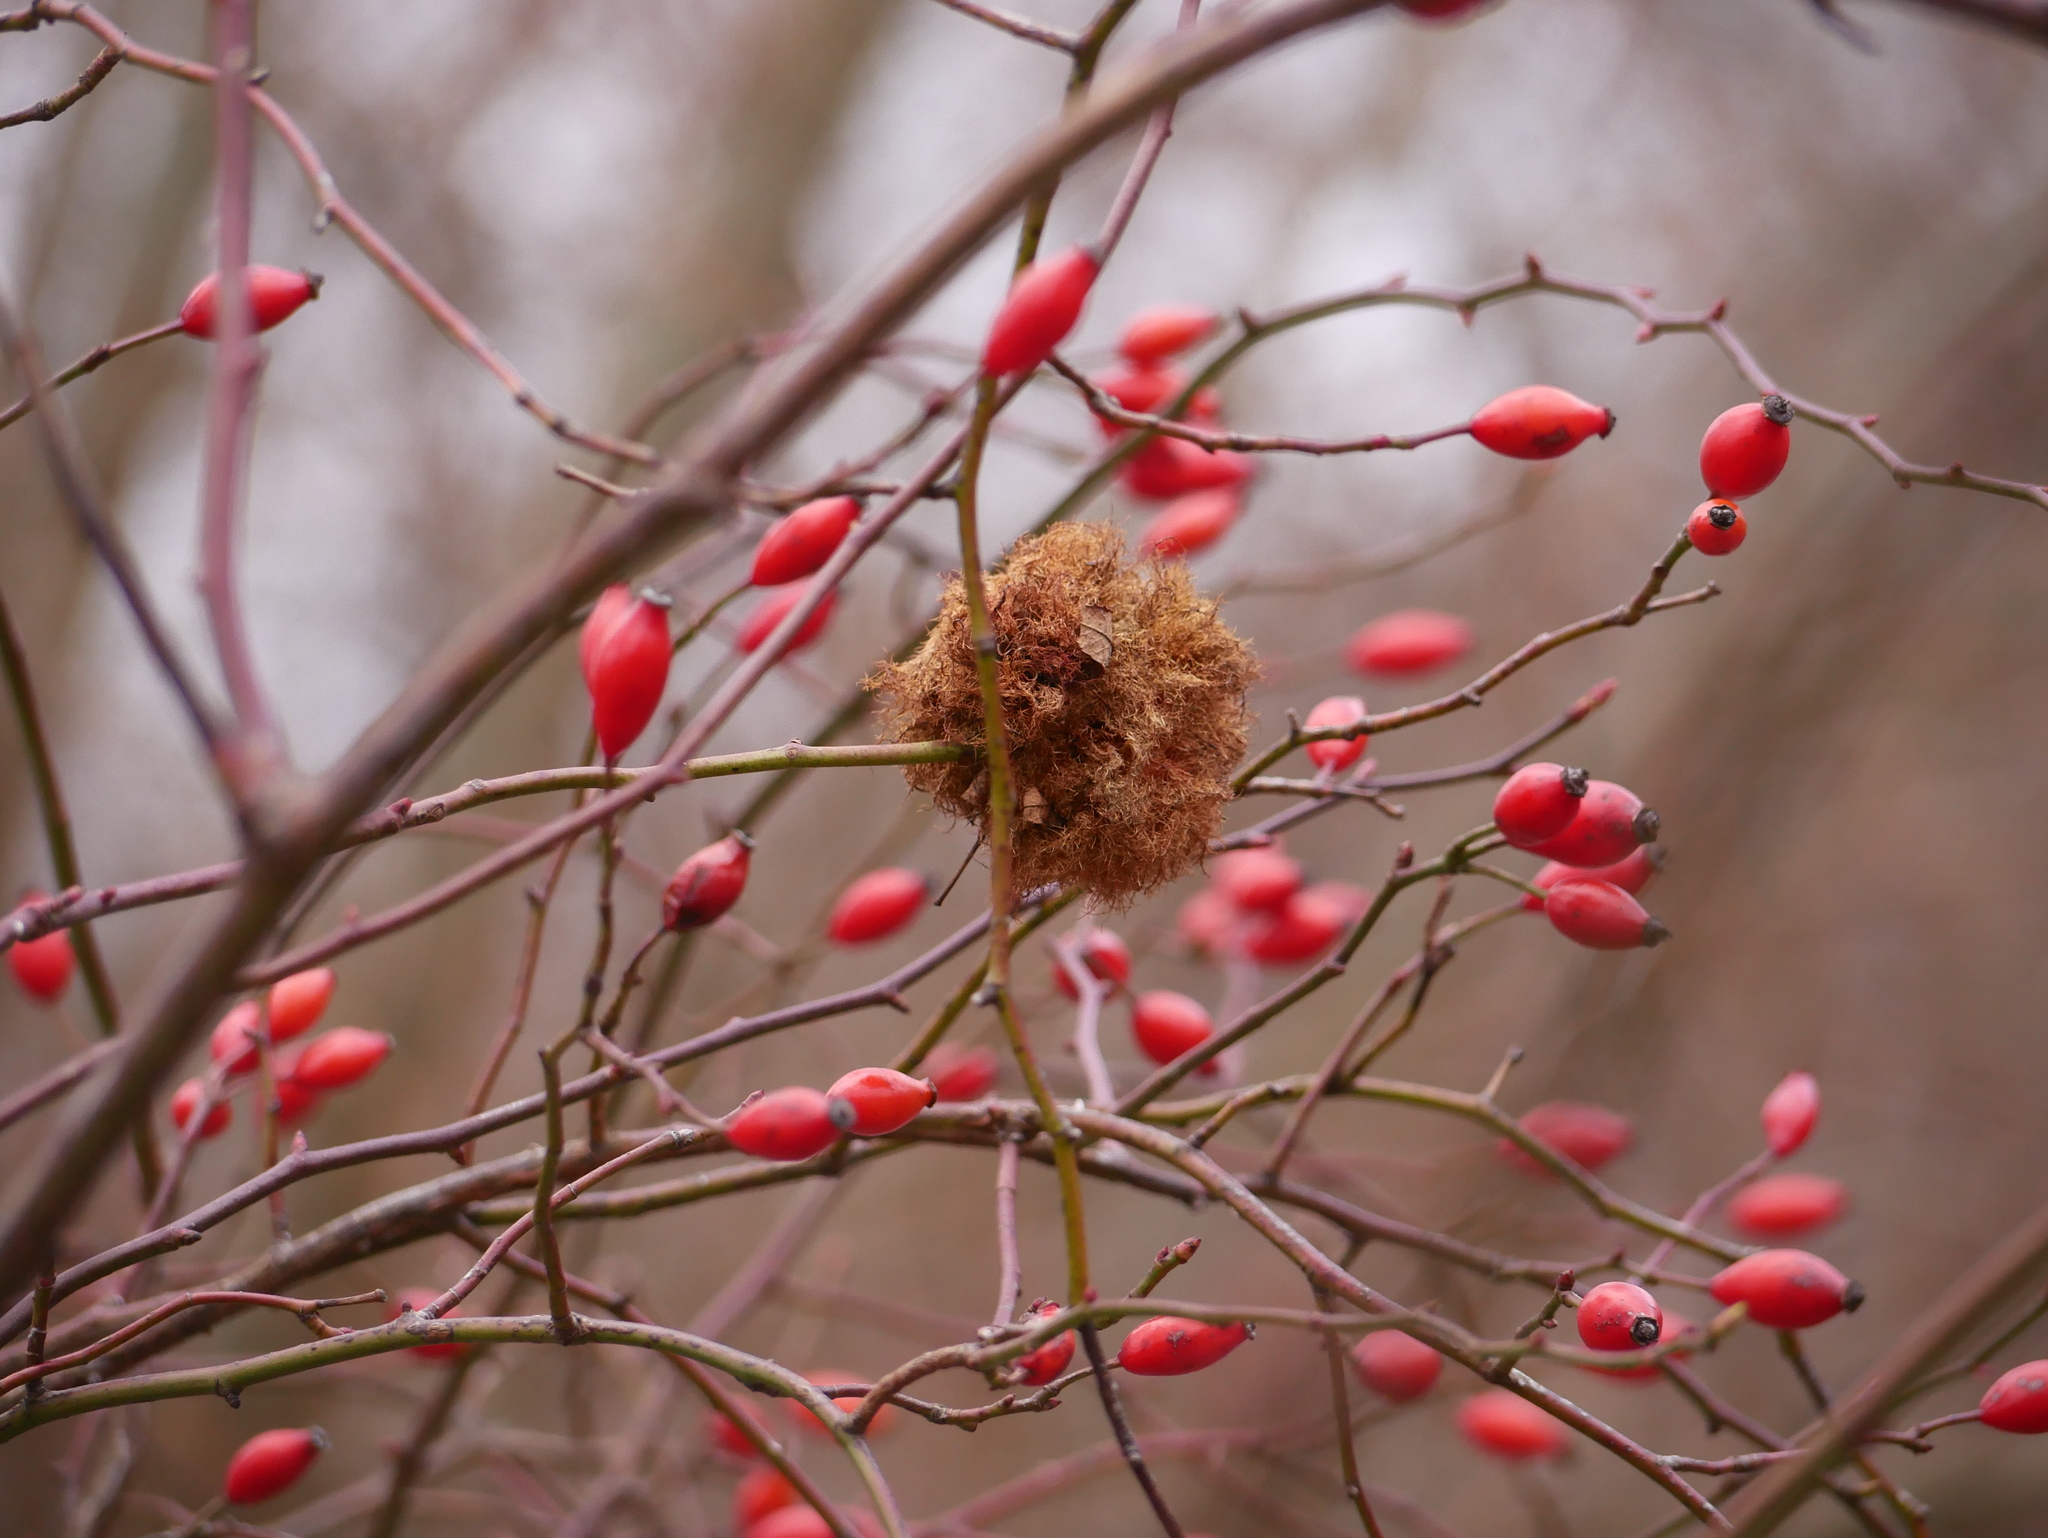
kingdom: Animalia
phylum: Arthropoda
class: Insecta
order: Hymenoptera
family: Cynipidae
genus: Diplolepis
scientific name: Diplolepis rosae
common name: Bedeguar gall
